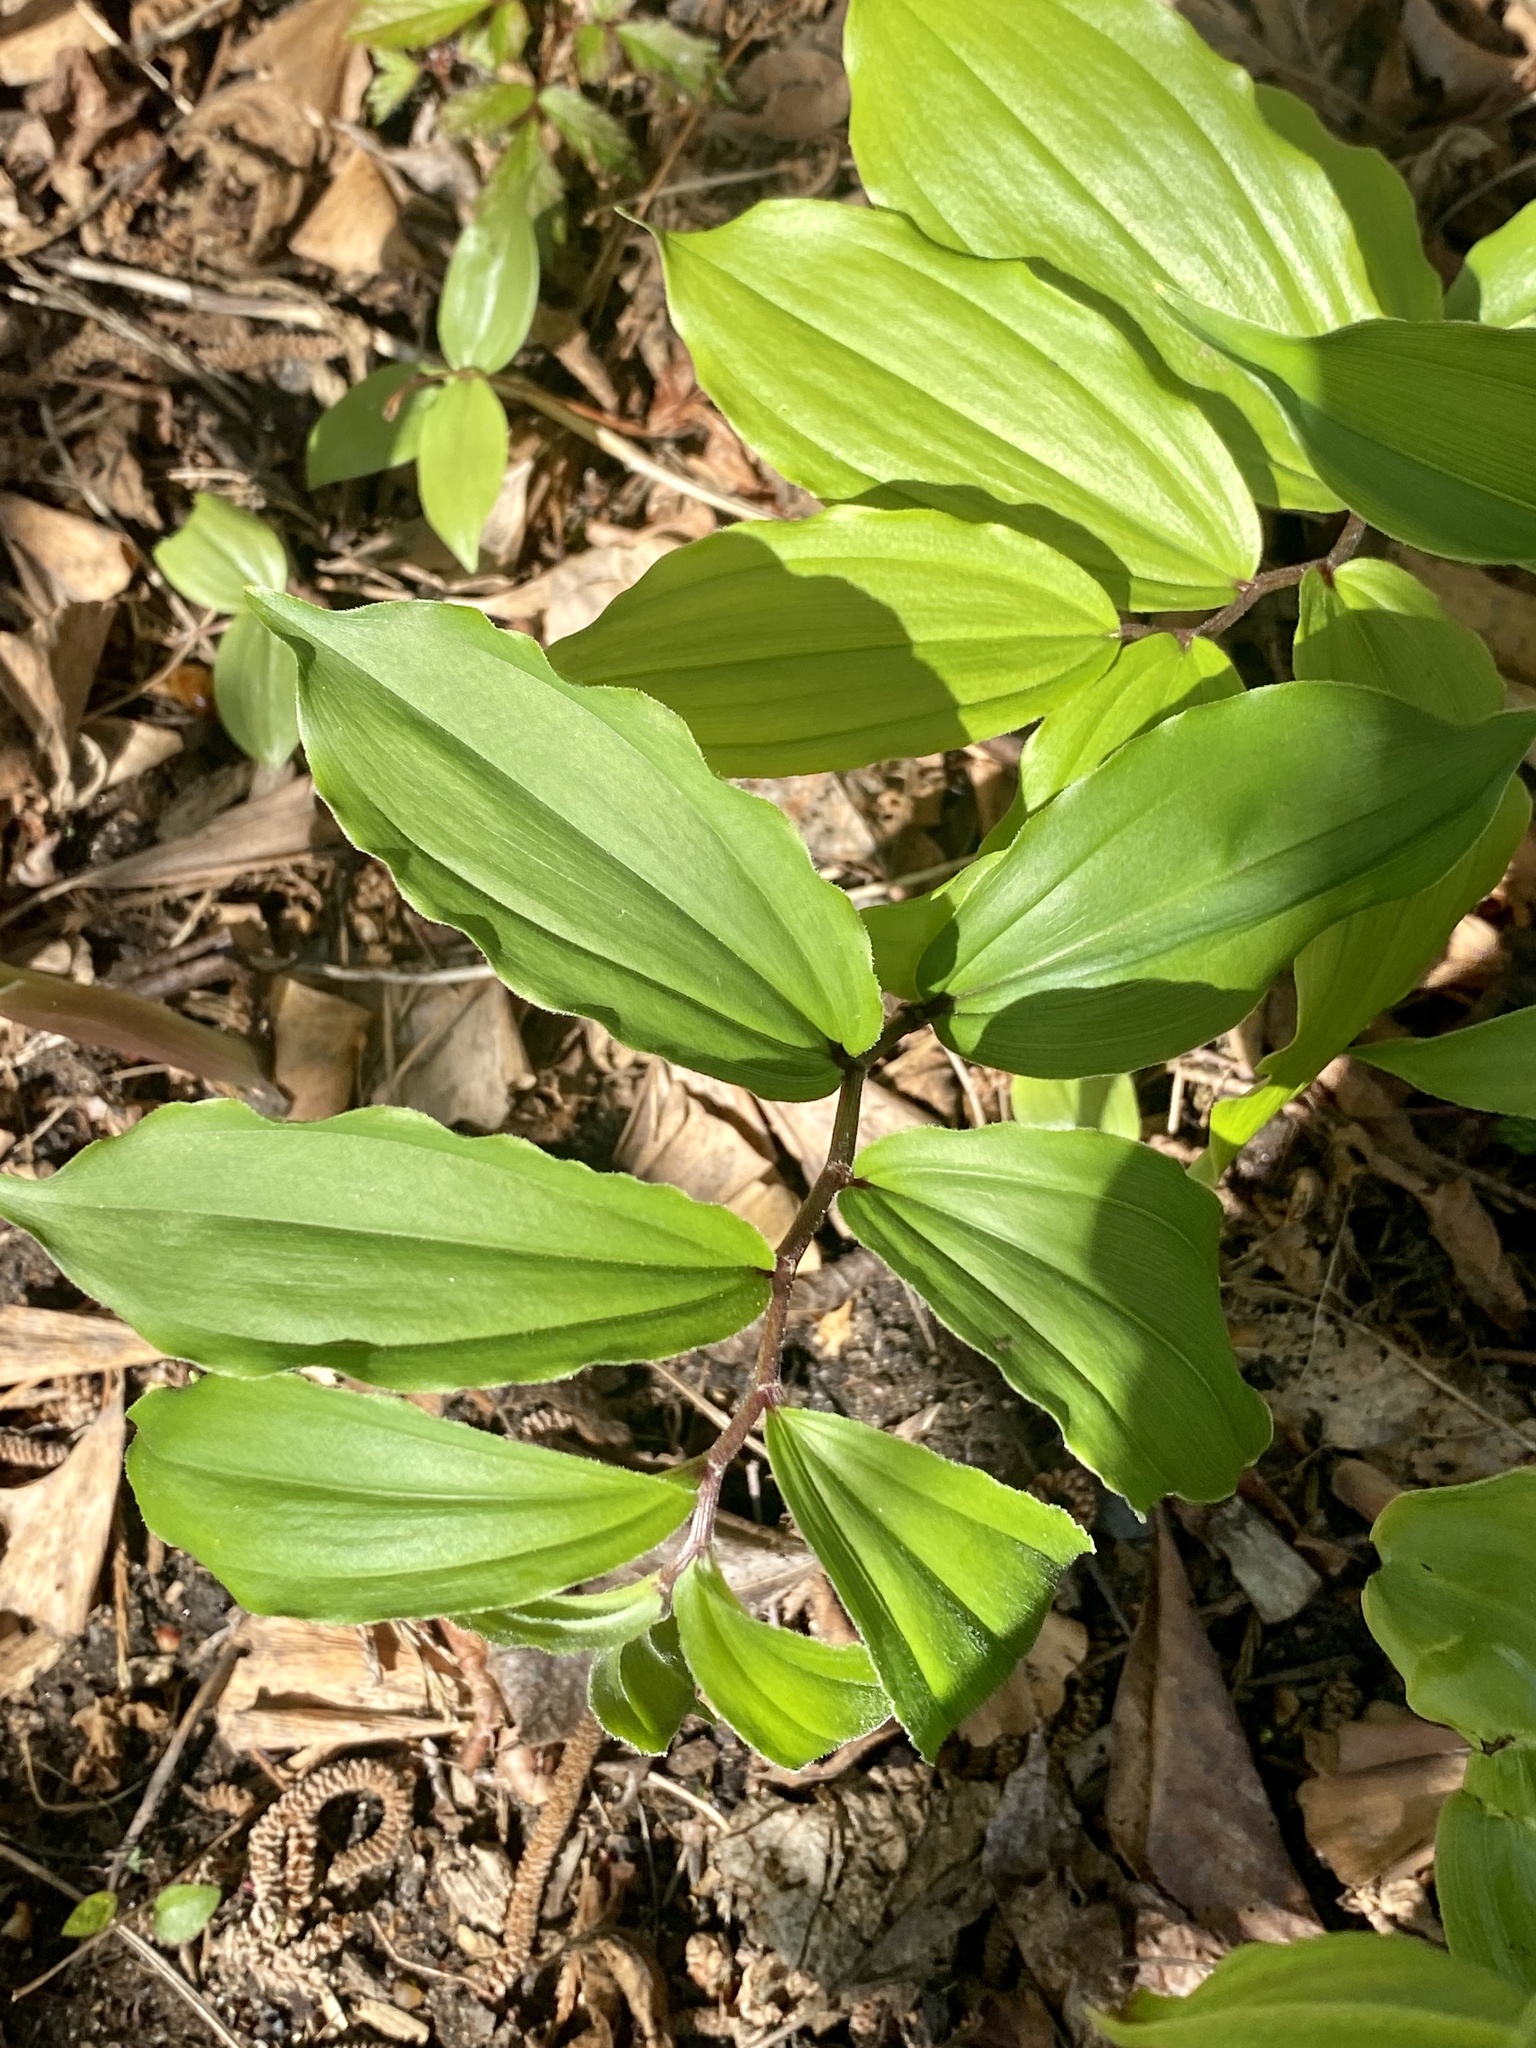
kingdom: Plantae
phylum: Tracheophyta
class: Liliopsida
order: Asparagales
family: Asparagaceae
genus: Maianthemum
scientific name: Maianthemum racemosum
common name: False spikenard
